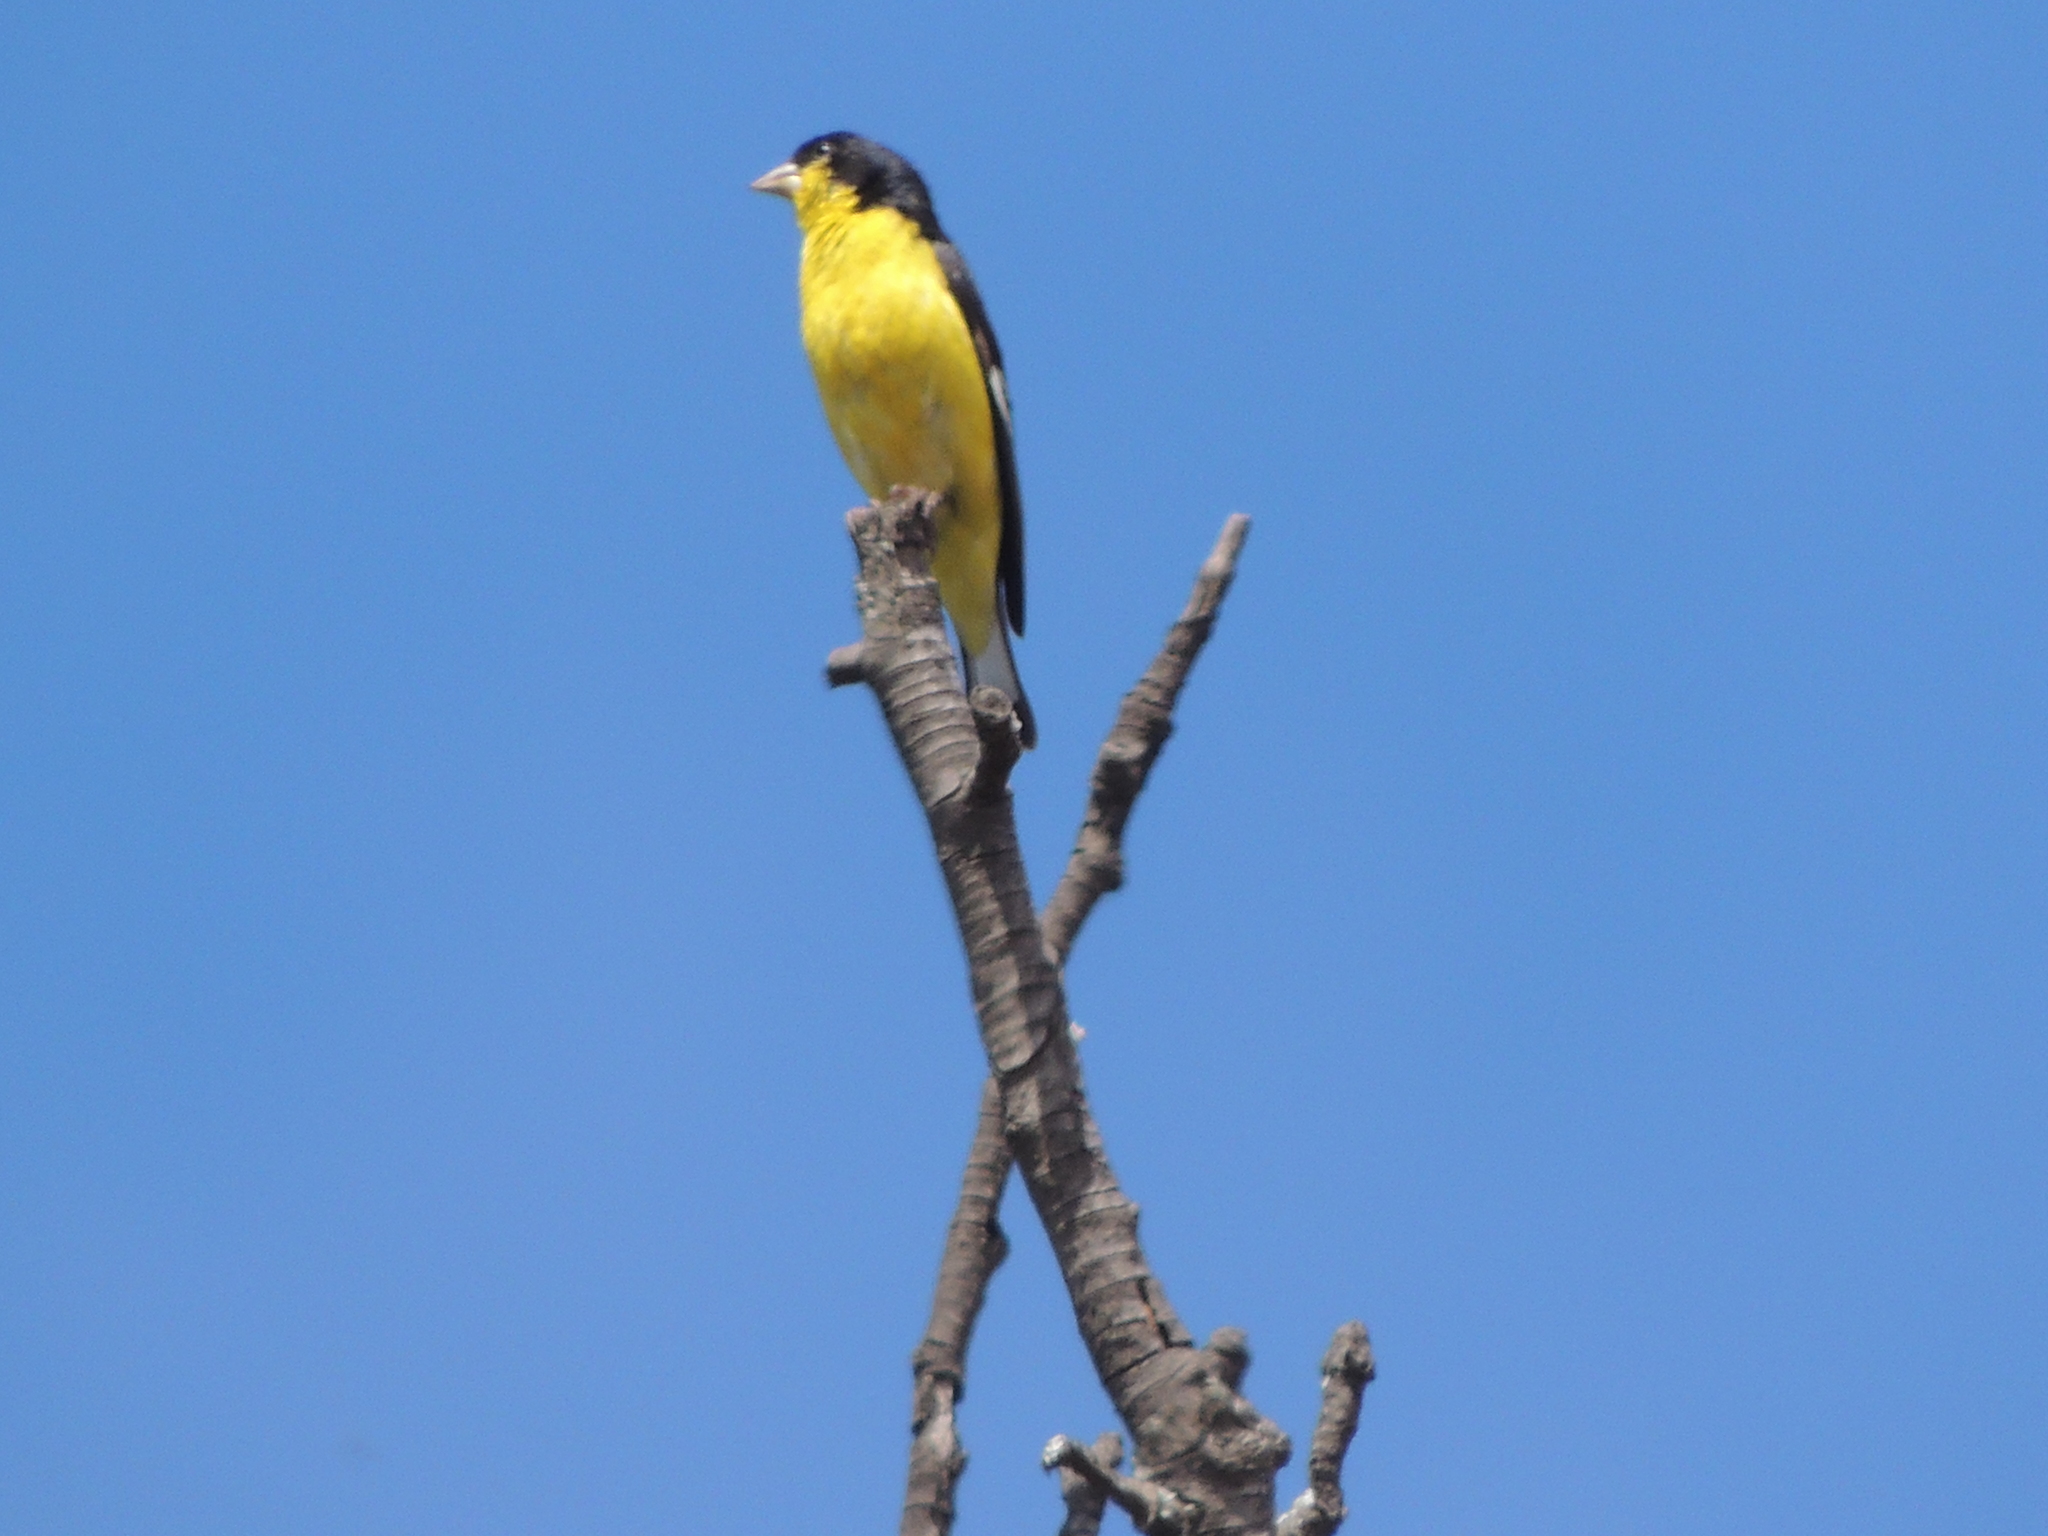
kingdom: Animalia
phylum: Chordata
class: Aves
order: Passeriformes
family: Fringillidae
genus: Spinus
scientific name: Spinus psaltria
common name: Lesser goldfinch
